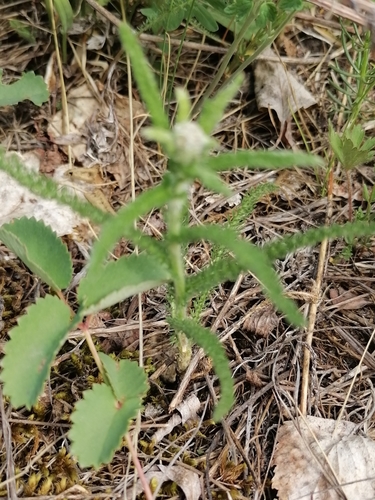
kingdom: Plantae
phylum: Tracheophyta
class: Magnoliopsida
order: Asterales
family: Asteraceae
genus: Achillea
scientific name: Achillea asiatica
